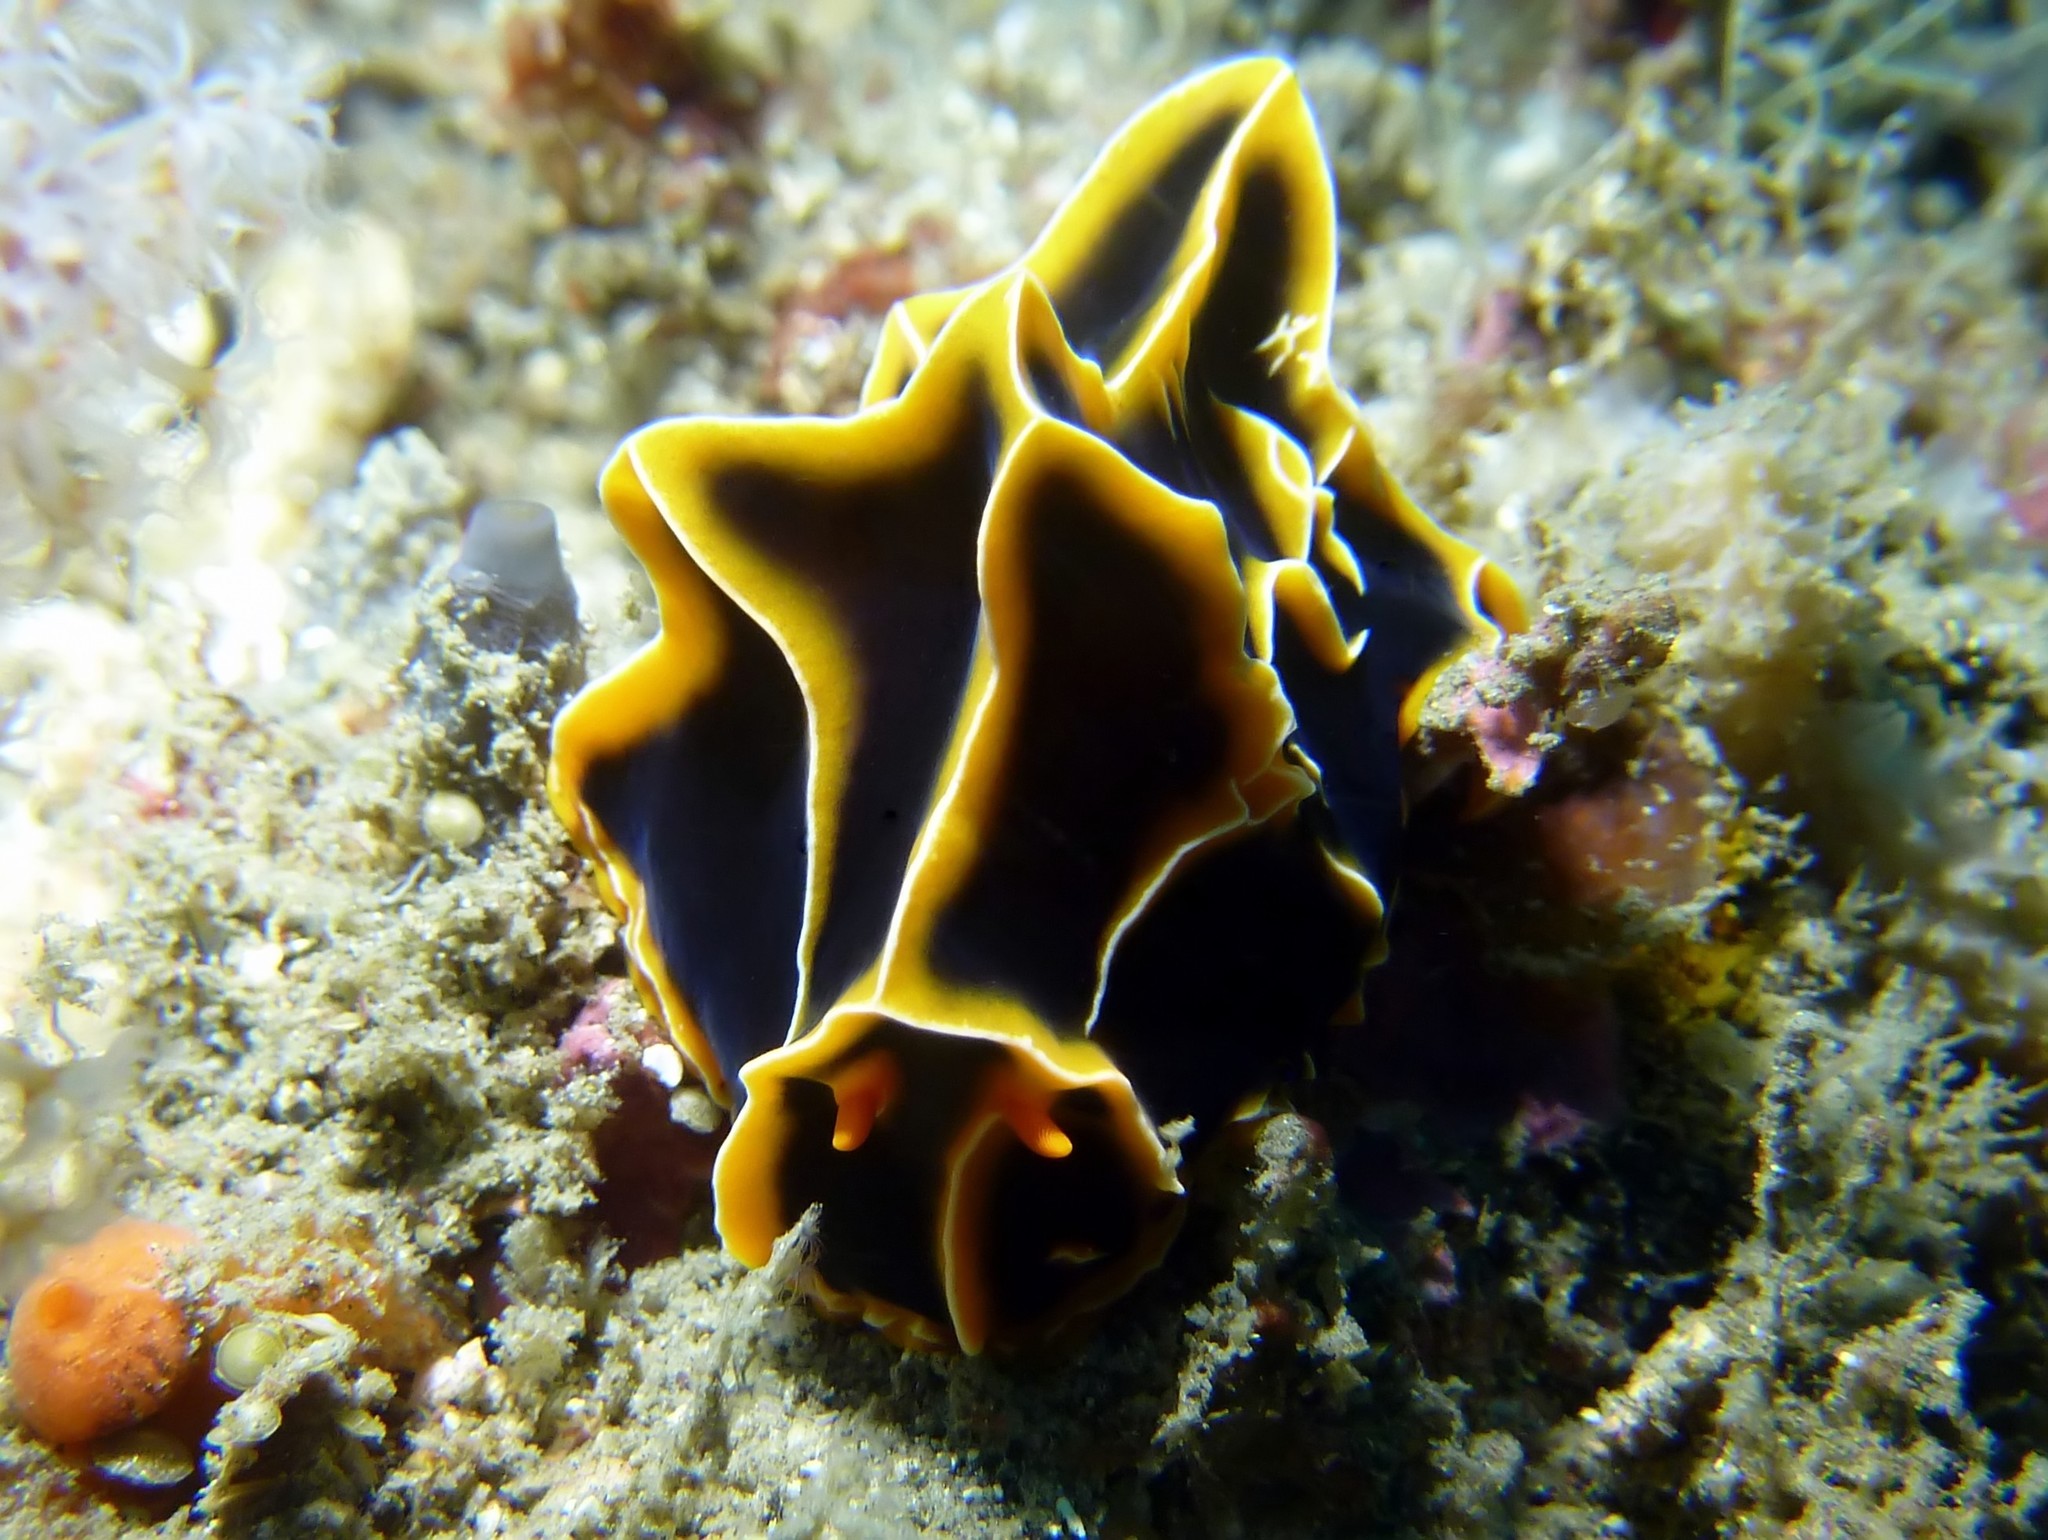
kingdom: Animalia
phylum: Mollusca
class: Gastropoda
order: Nudibranchia
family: Phyllidiidae
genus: Reticulidia
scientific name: Reticulidia halgerda
